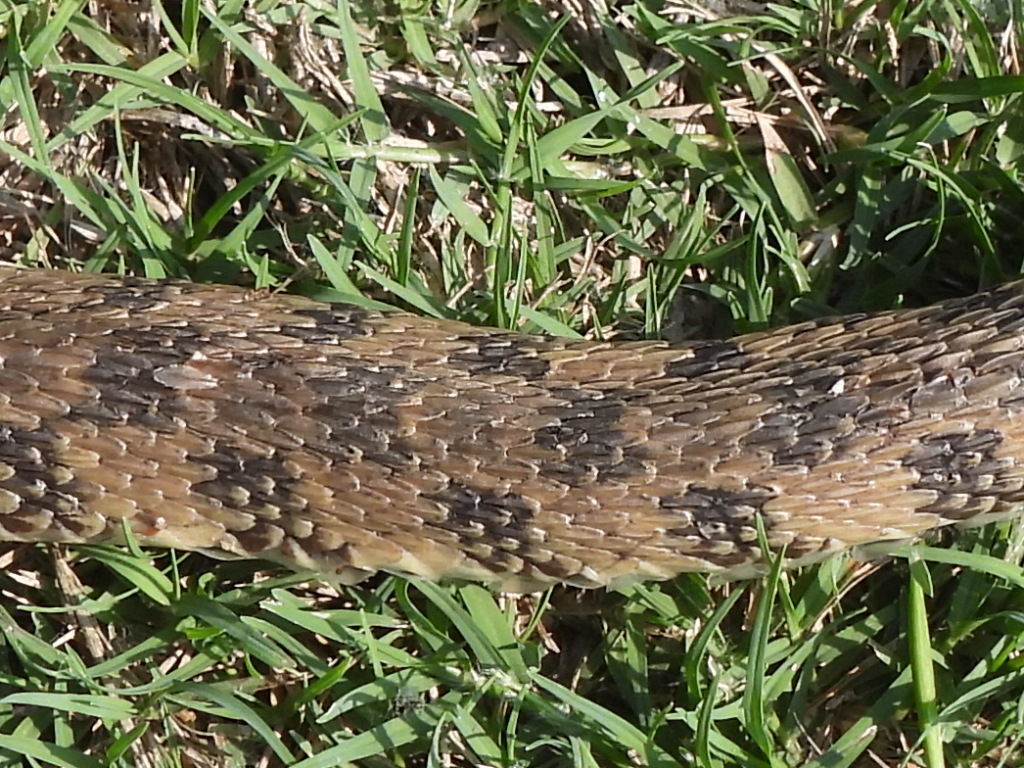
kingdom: Animalia
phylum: Chordata
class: Squamata
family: Colubridae
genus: Nerodia
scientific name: Nerodia rhombifer
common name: Diamondback water snake
